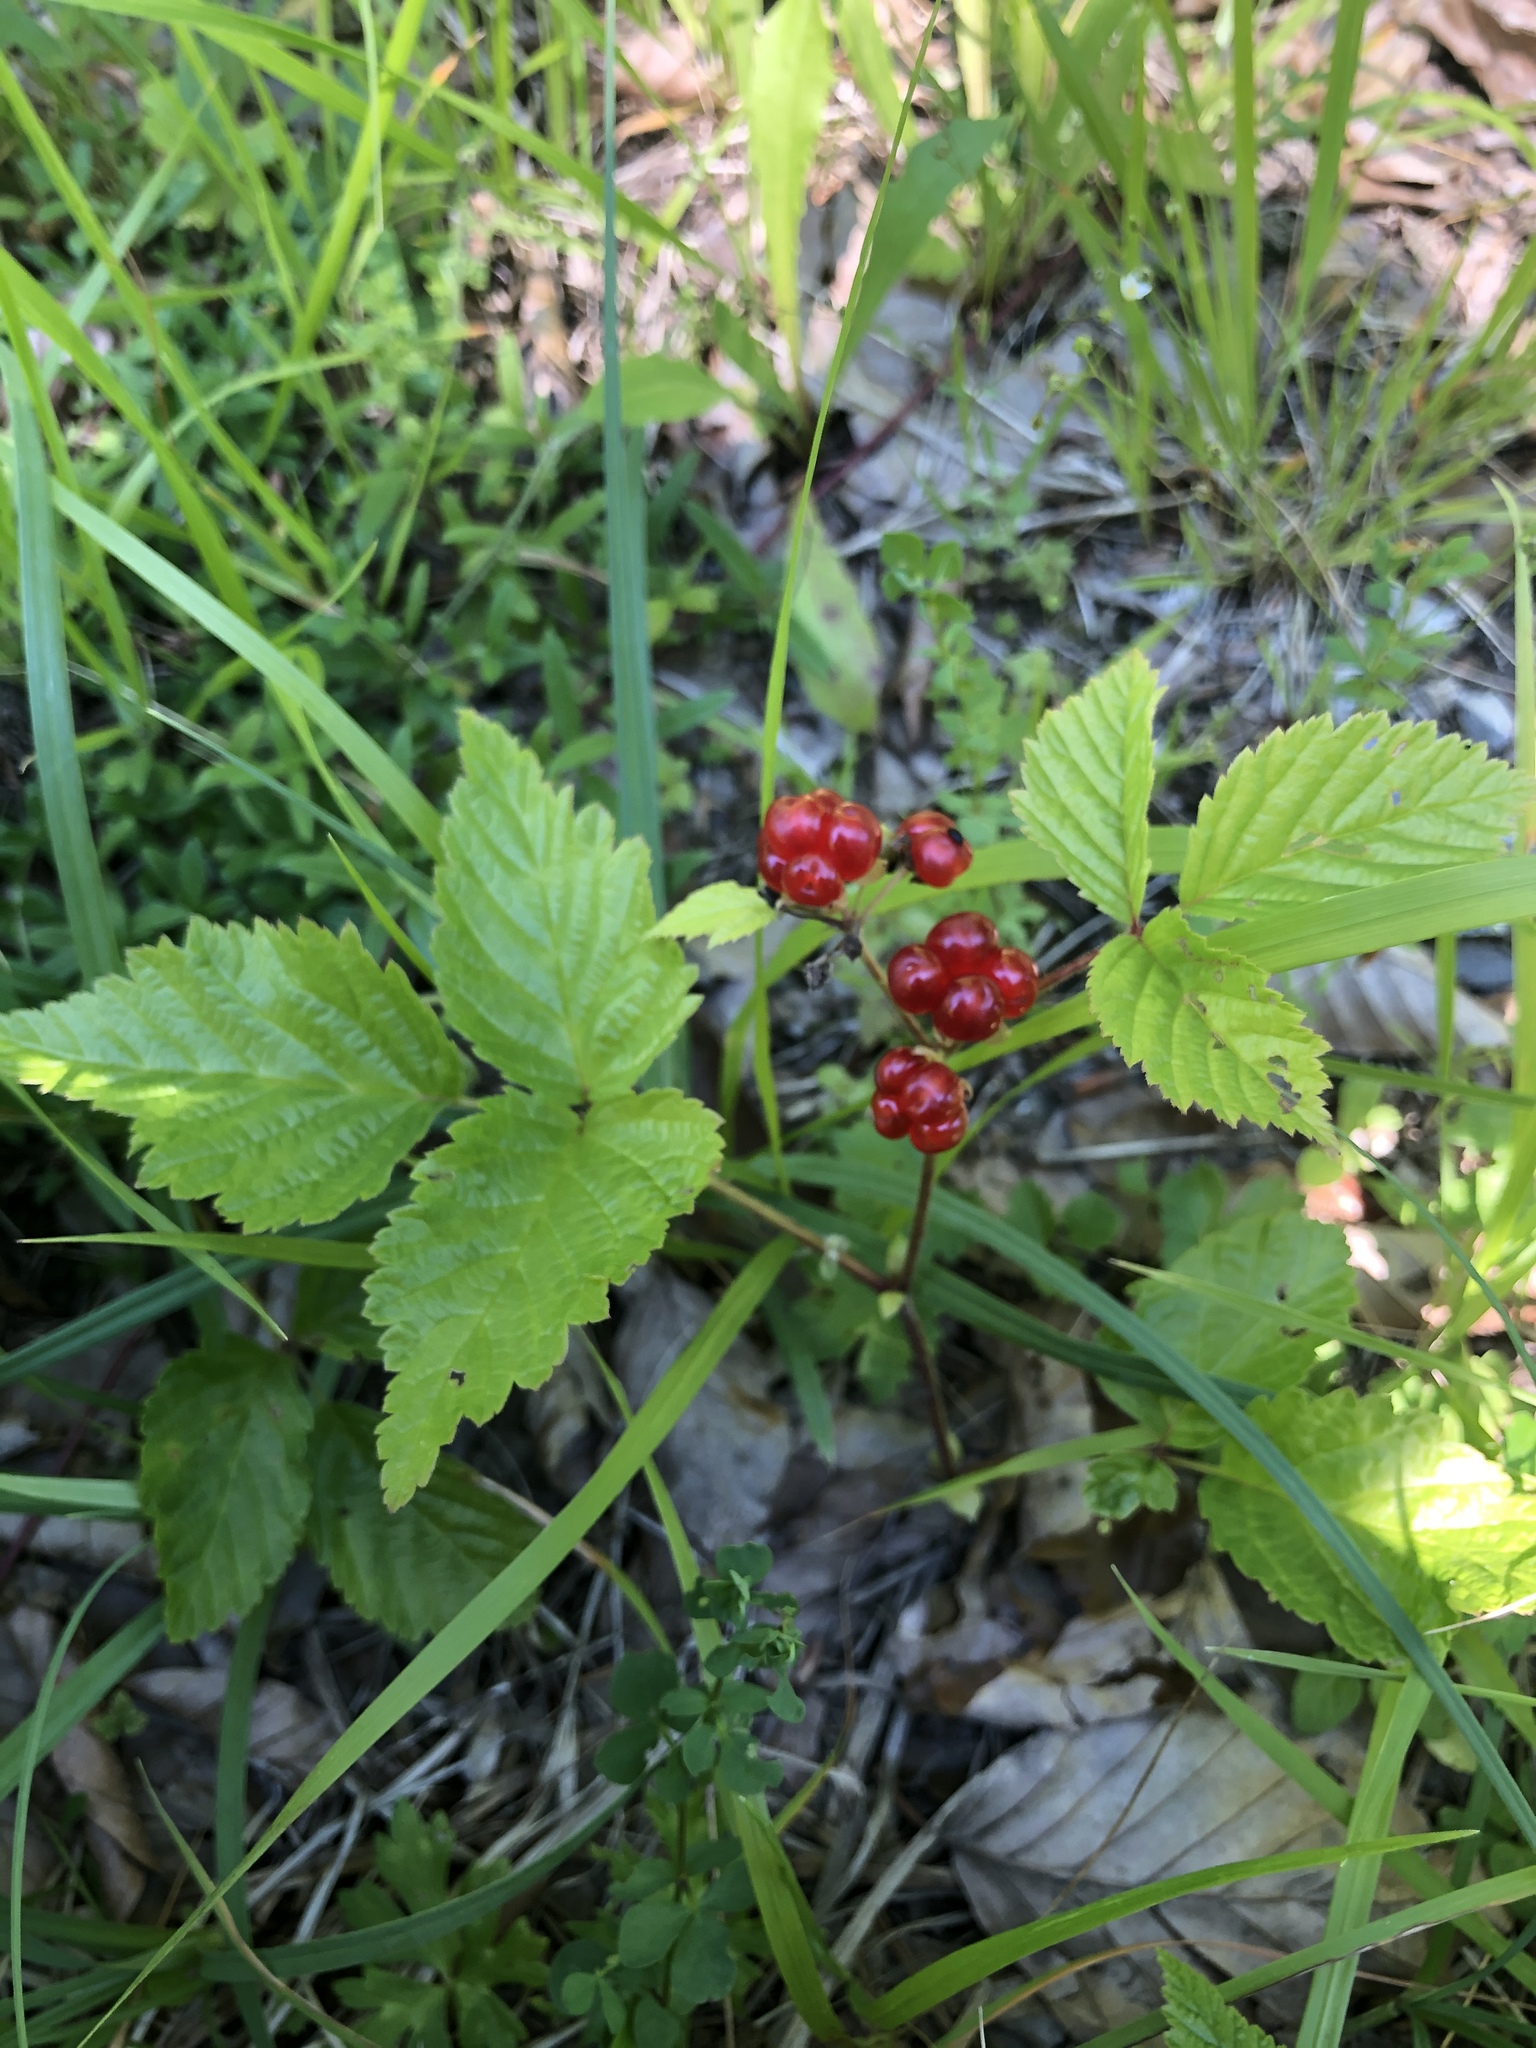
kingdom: Plantae
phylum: Tracheophyta
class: Magnoliopsida
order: Rosales
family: Rosaceae
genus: Rubus
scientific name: Rubus saxatilis
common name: Stone bramble
